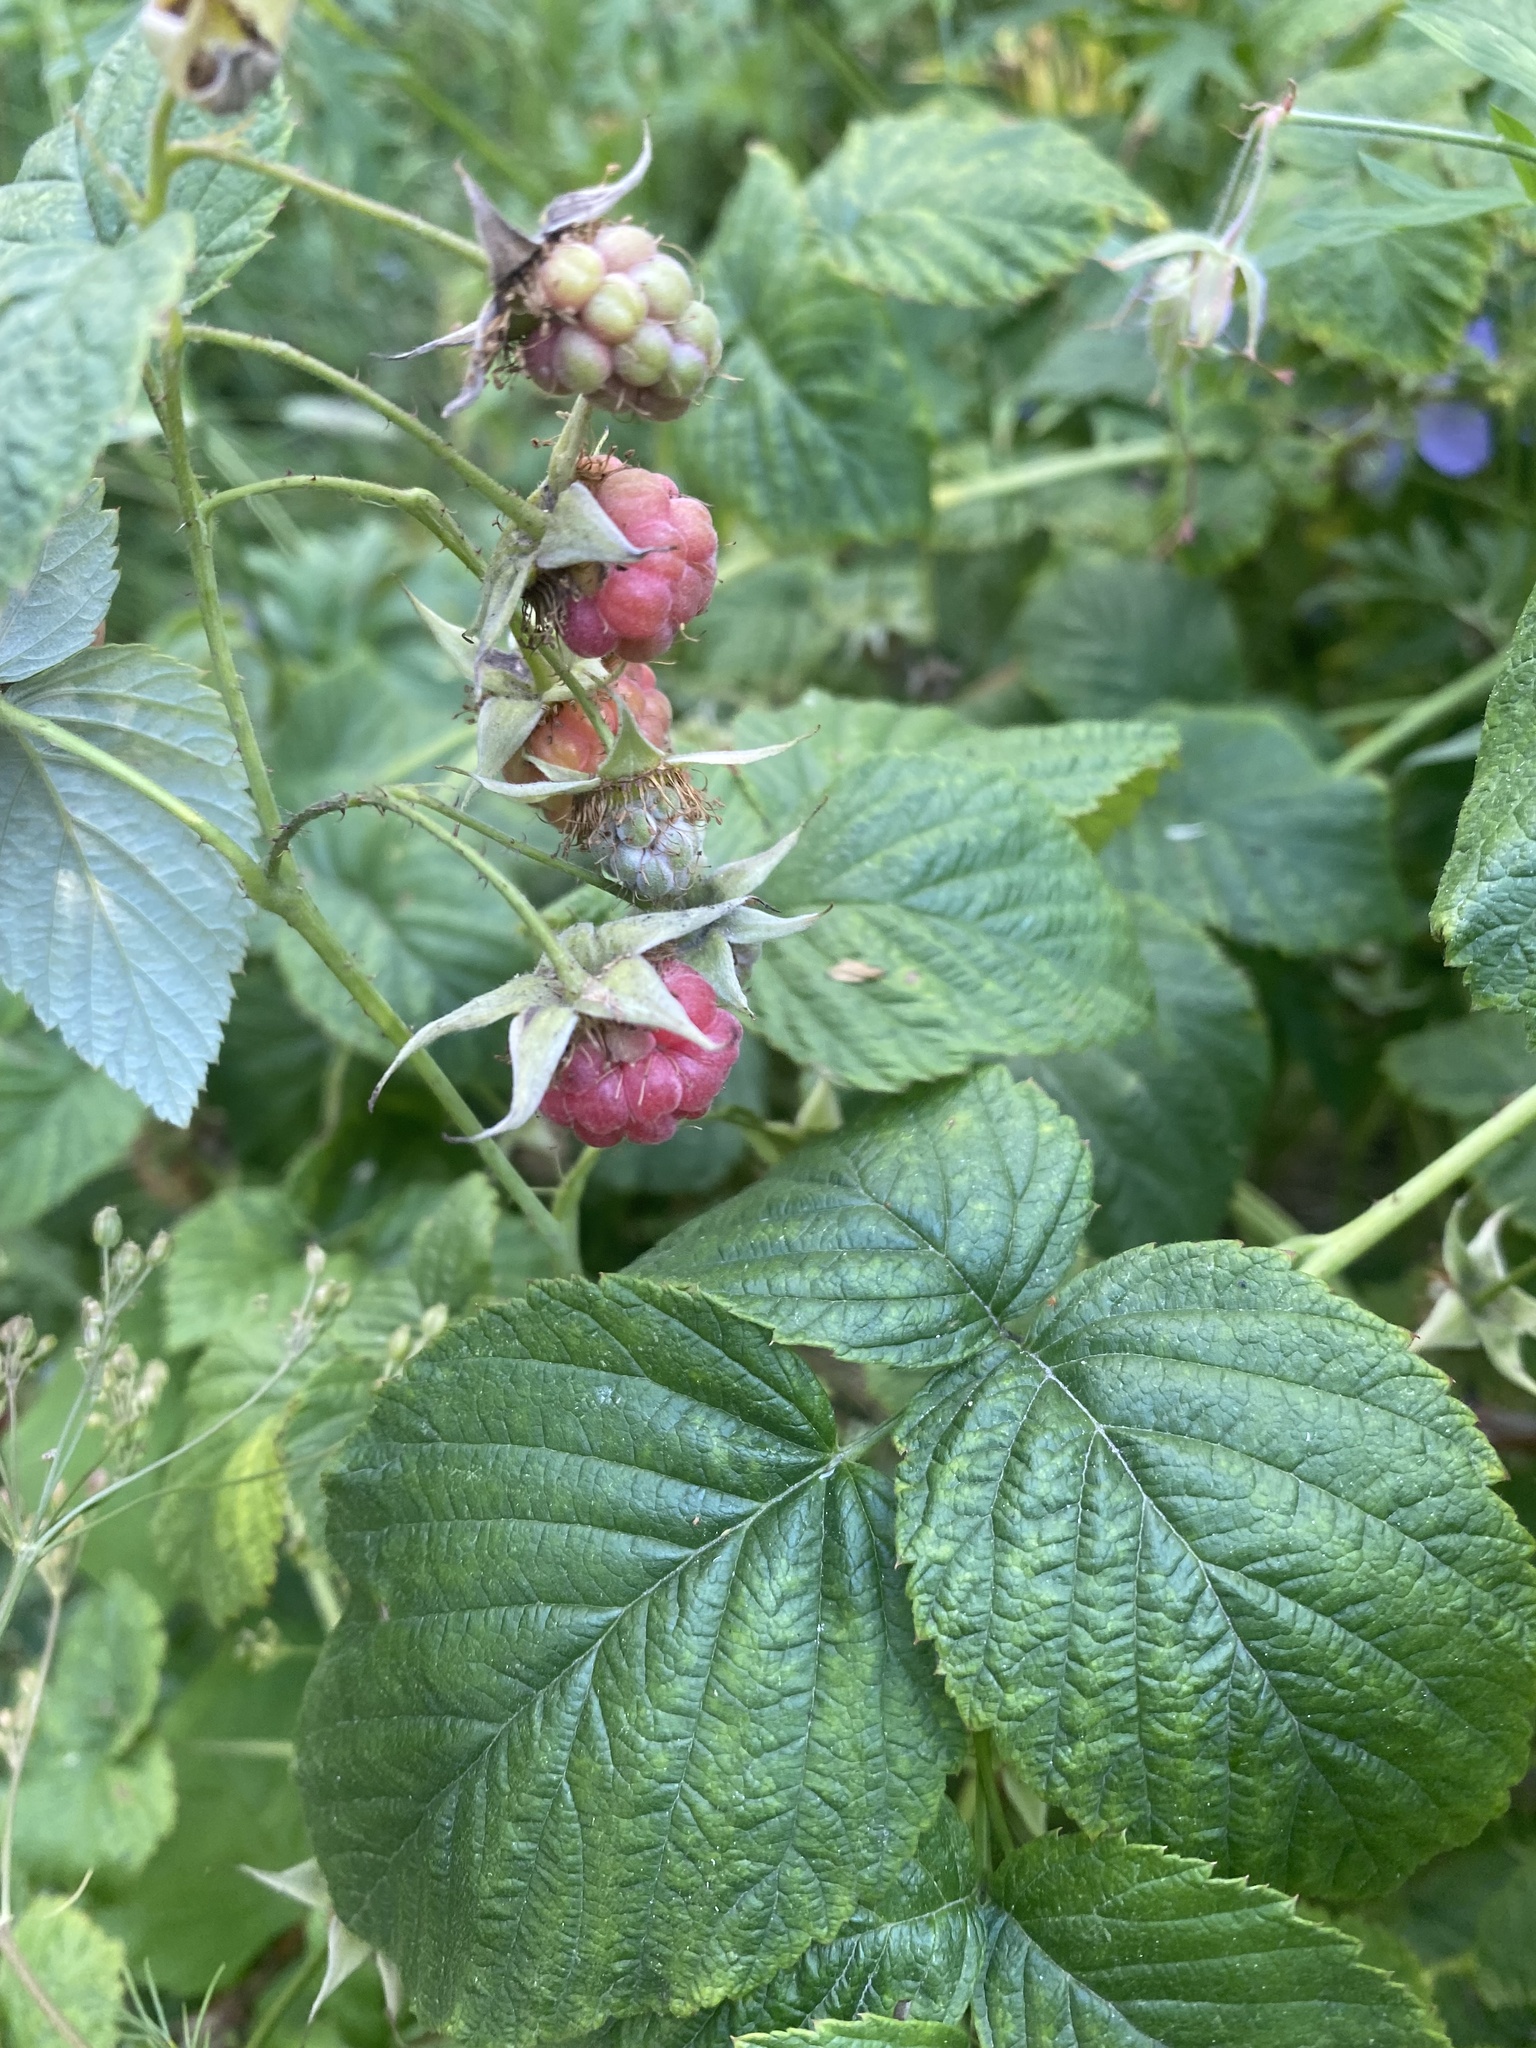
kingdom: Plantae
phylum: Tracheophyta
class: Magnoliopsida
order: Rosales
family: Rosaceae
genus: Rubus
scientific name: Rubus idaeus
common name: Raspberry
